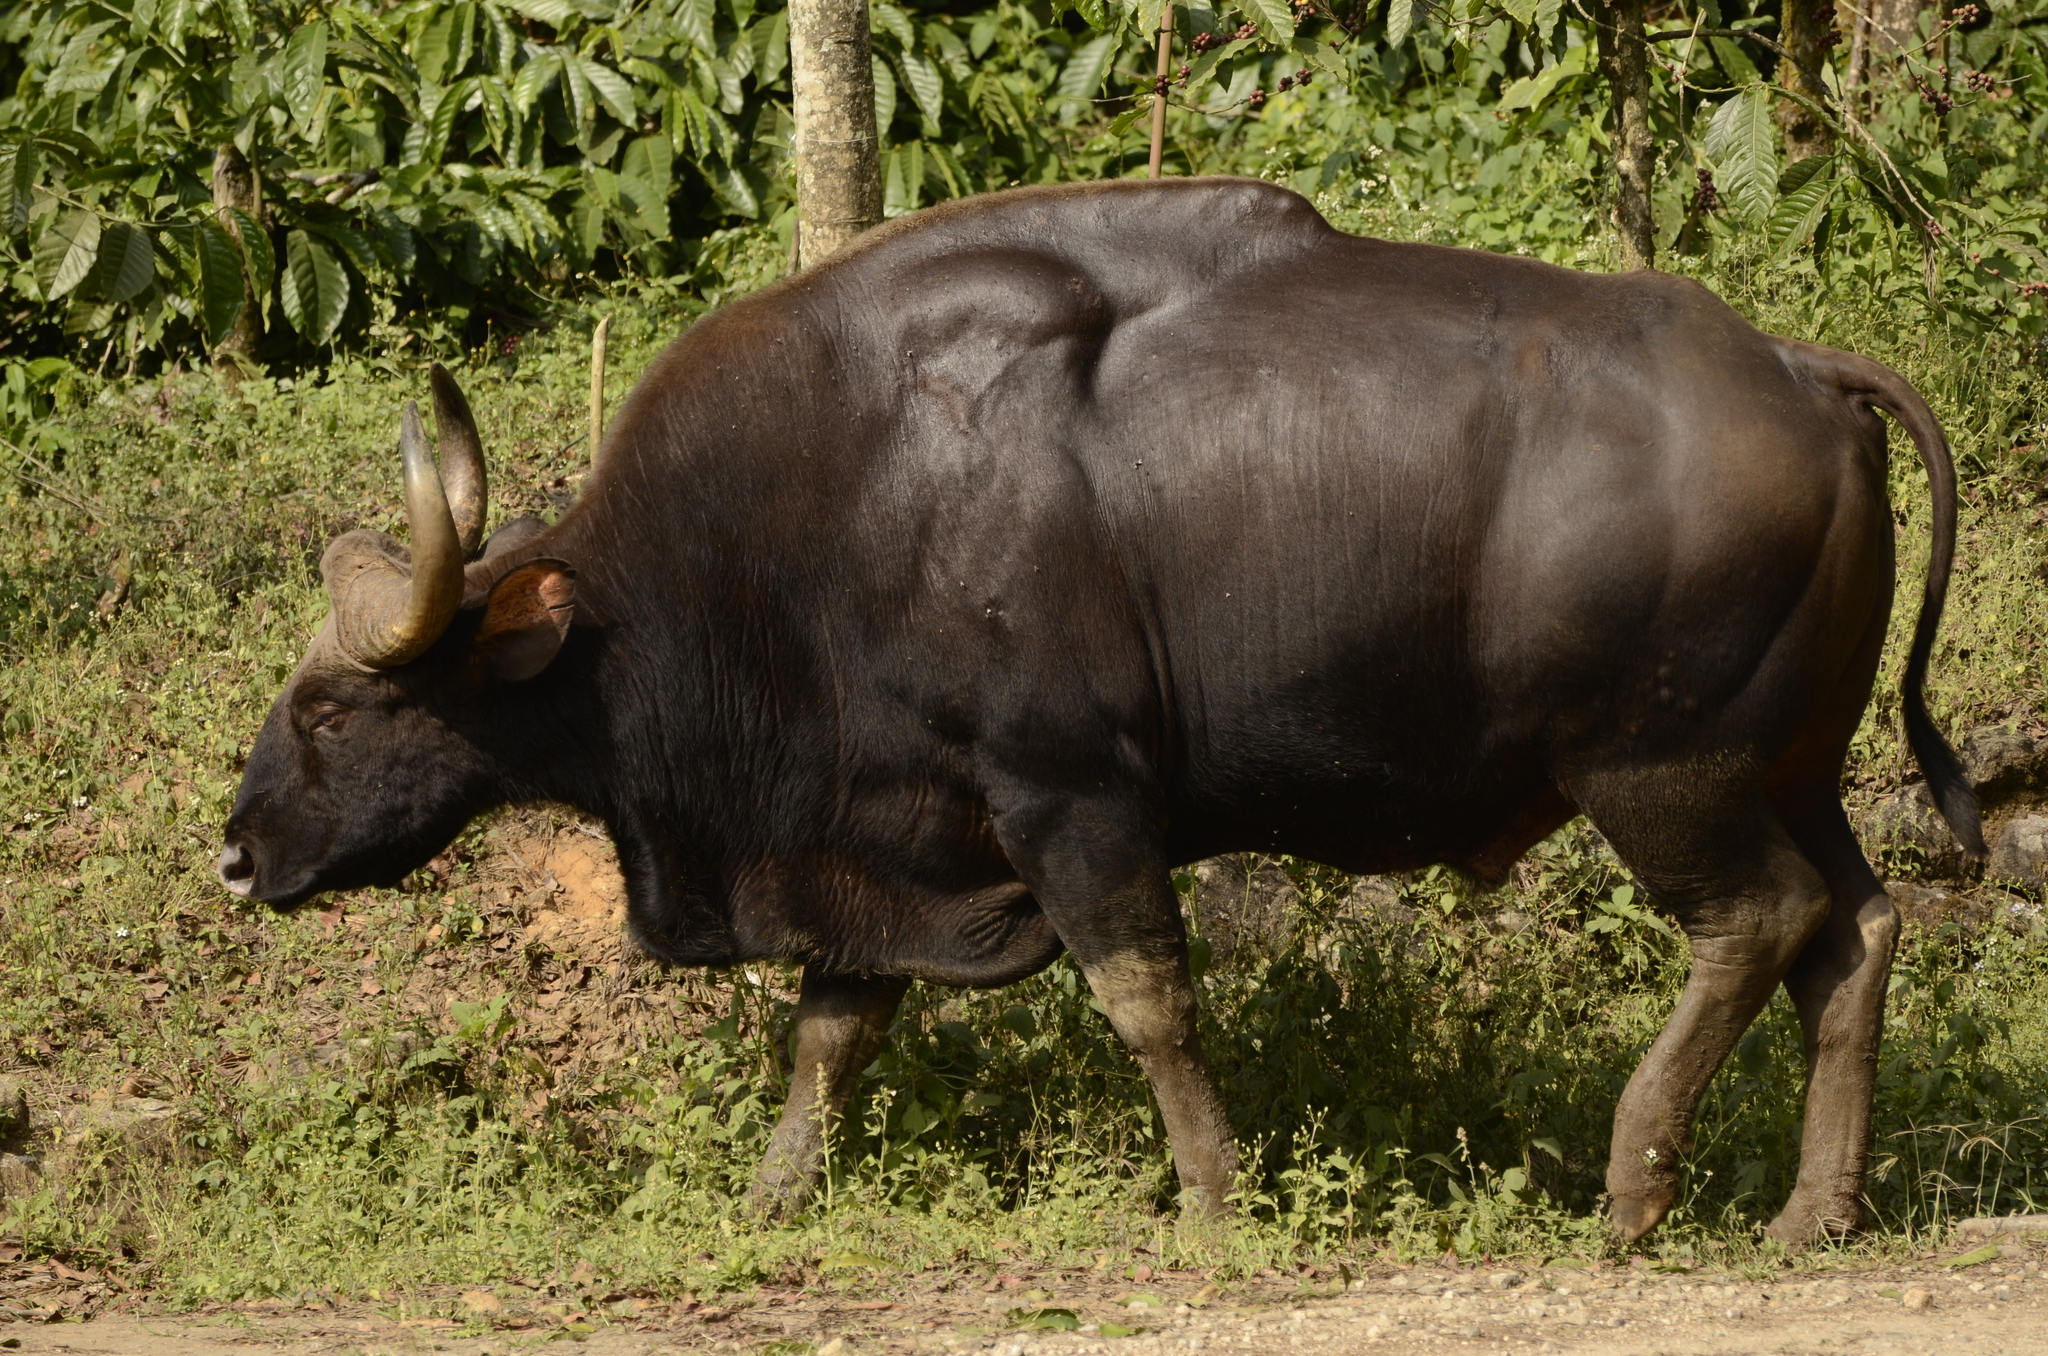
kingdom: Animalia
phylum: Chordata
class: Mammalia
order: Artiodactyla
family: Bovidae
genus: Bos
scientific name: Bos frontalis
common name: Gaur
